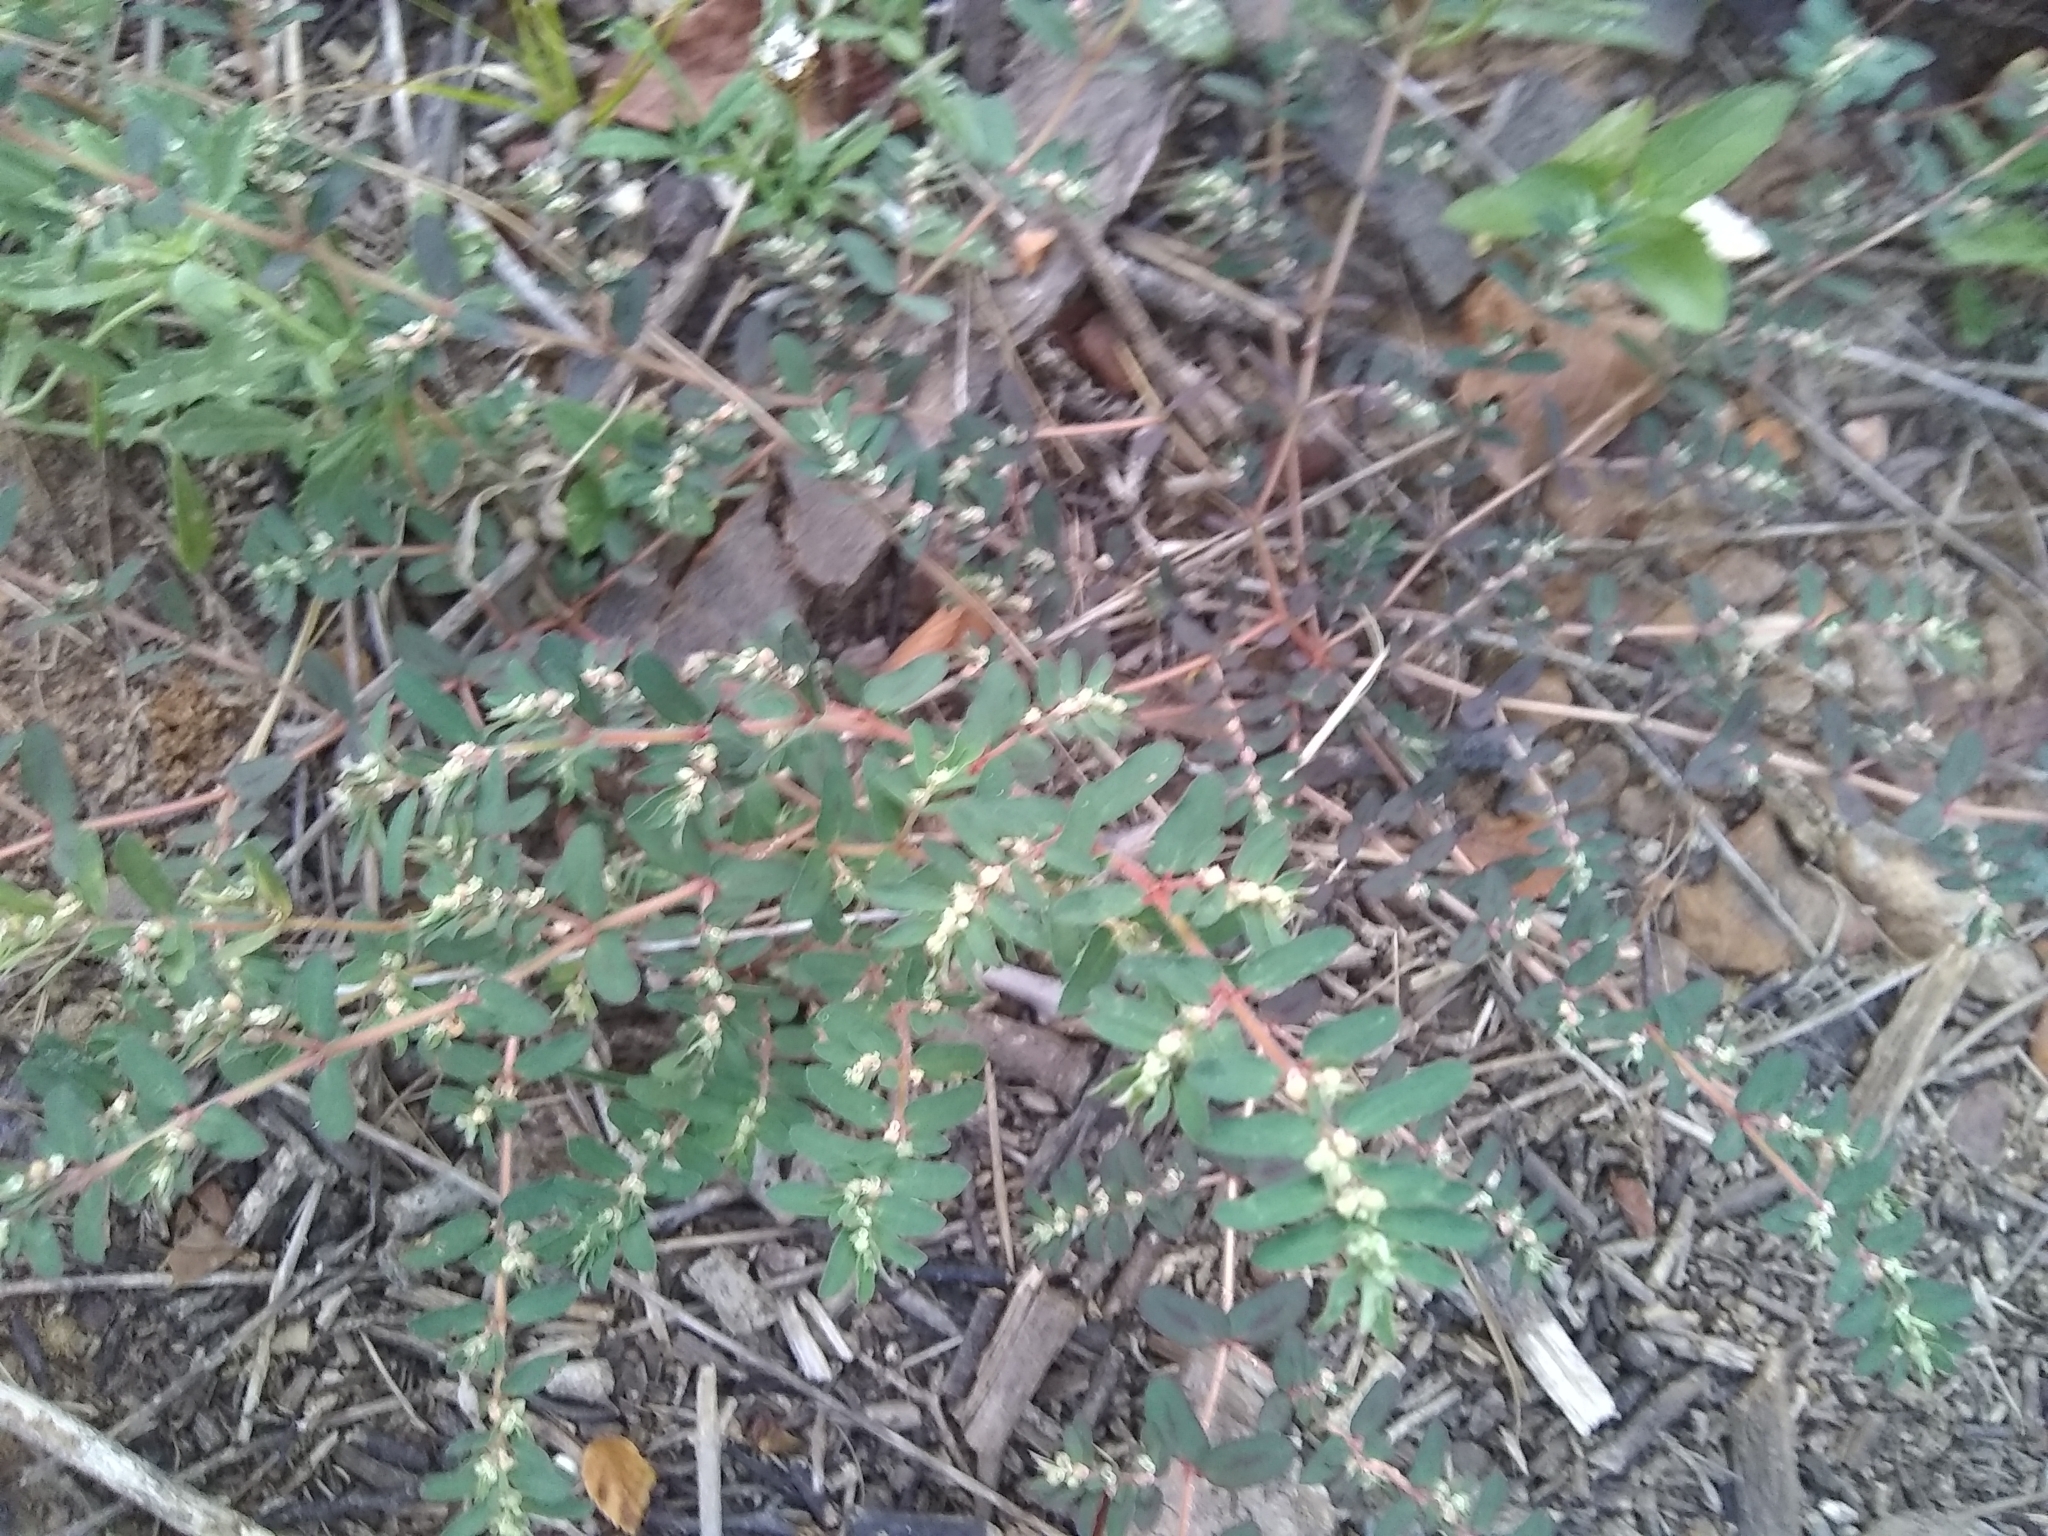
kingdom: Plantae
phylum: Tracheophyta
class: Magnoliopsida
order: Malpighiales
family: Euphorbiaceae
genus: Euphorbia
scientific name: Euphorbia maculata
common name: Spotted spurge
